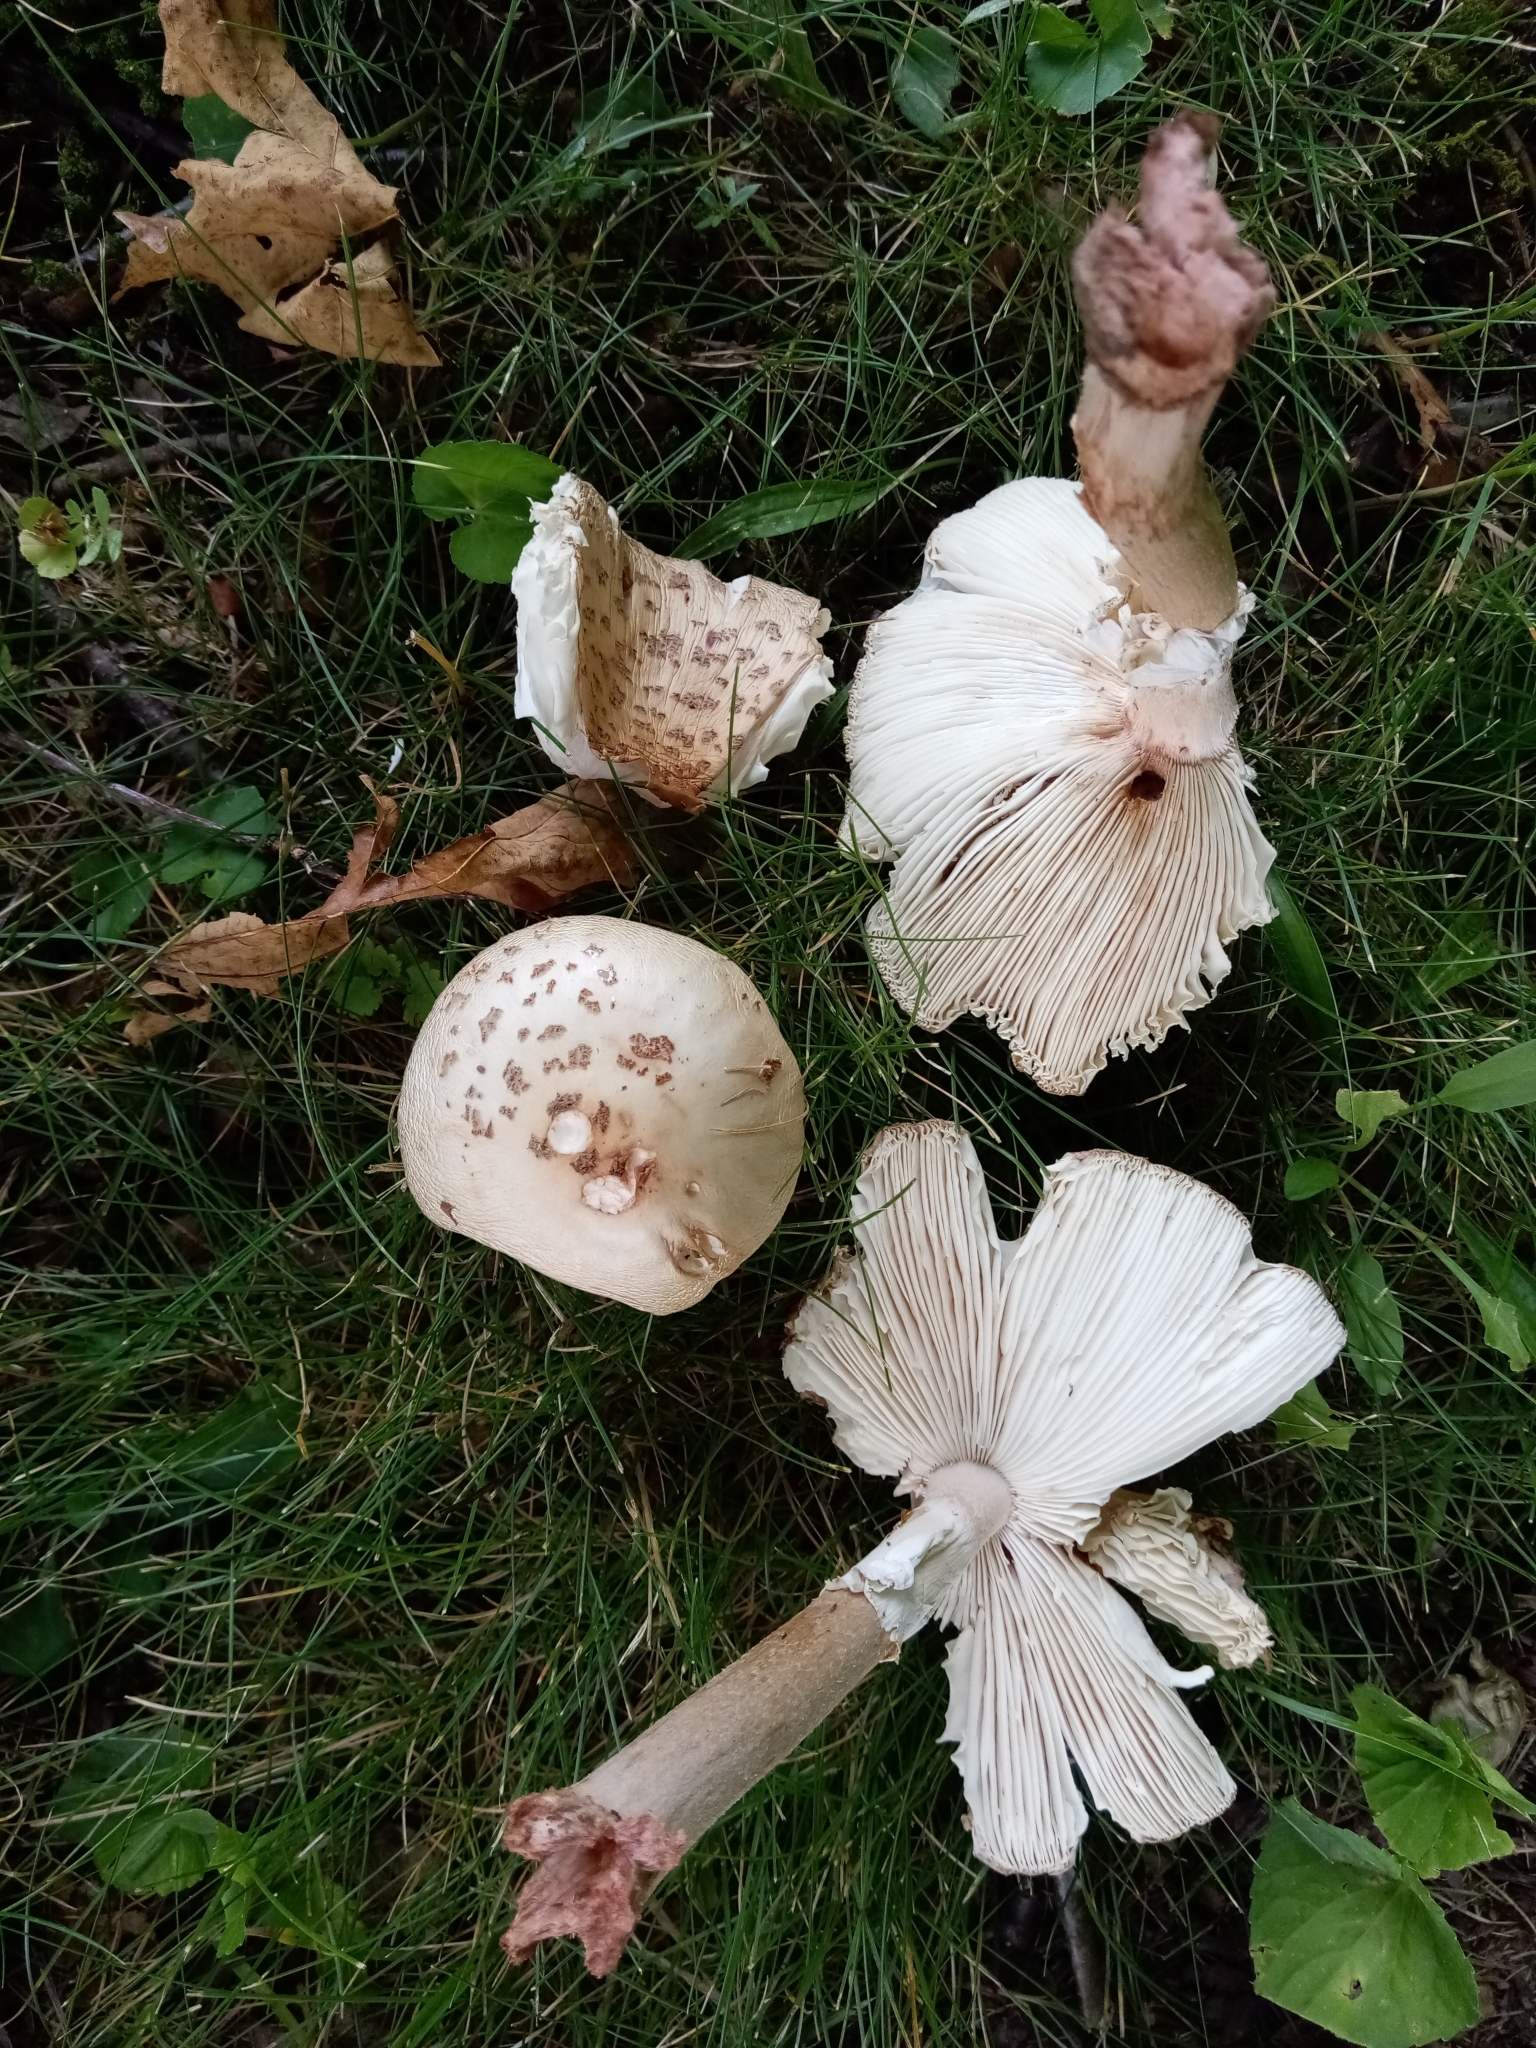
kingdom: Fungi
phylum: Basidiomycota
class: Agaricomycetes
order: Agaricales
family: Amanitaceae
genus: Amanita
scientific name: Amanita rubescens
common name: Blusher
